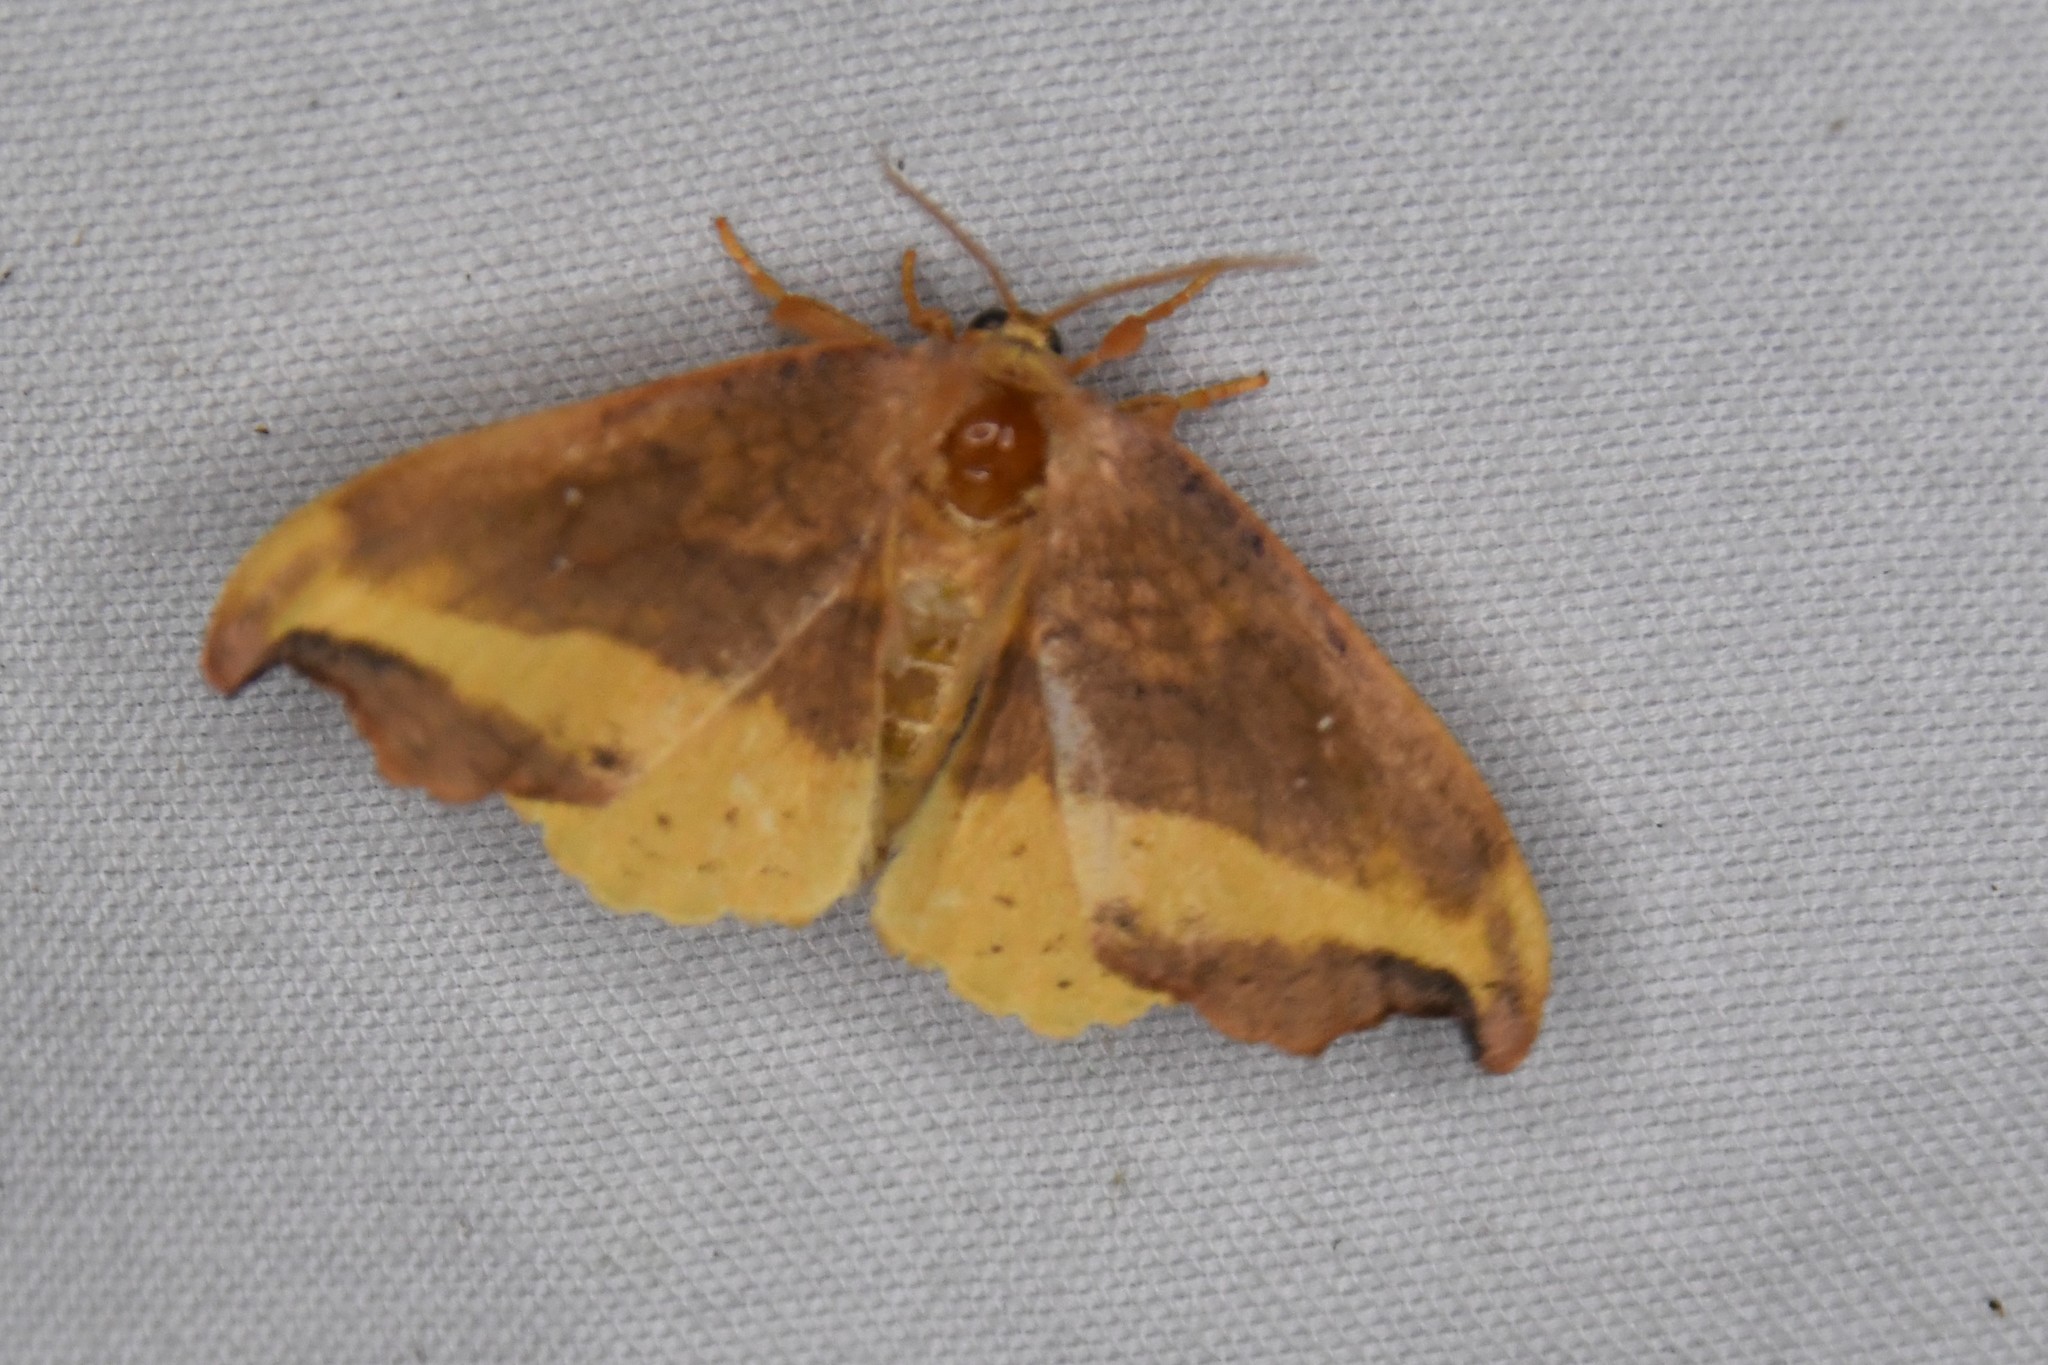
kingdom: Animalia
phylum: Arthropoda
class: Insecta
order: Lepidoptera
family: Drepanidae
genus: Oreta
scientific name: Oreta rosea
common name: Rose hooktip
